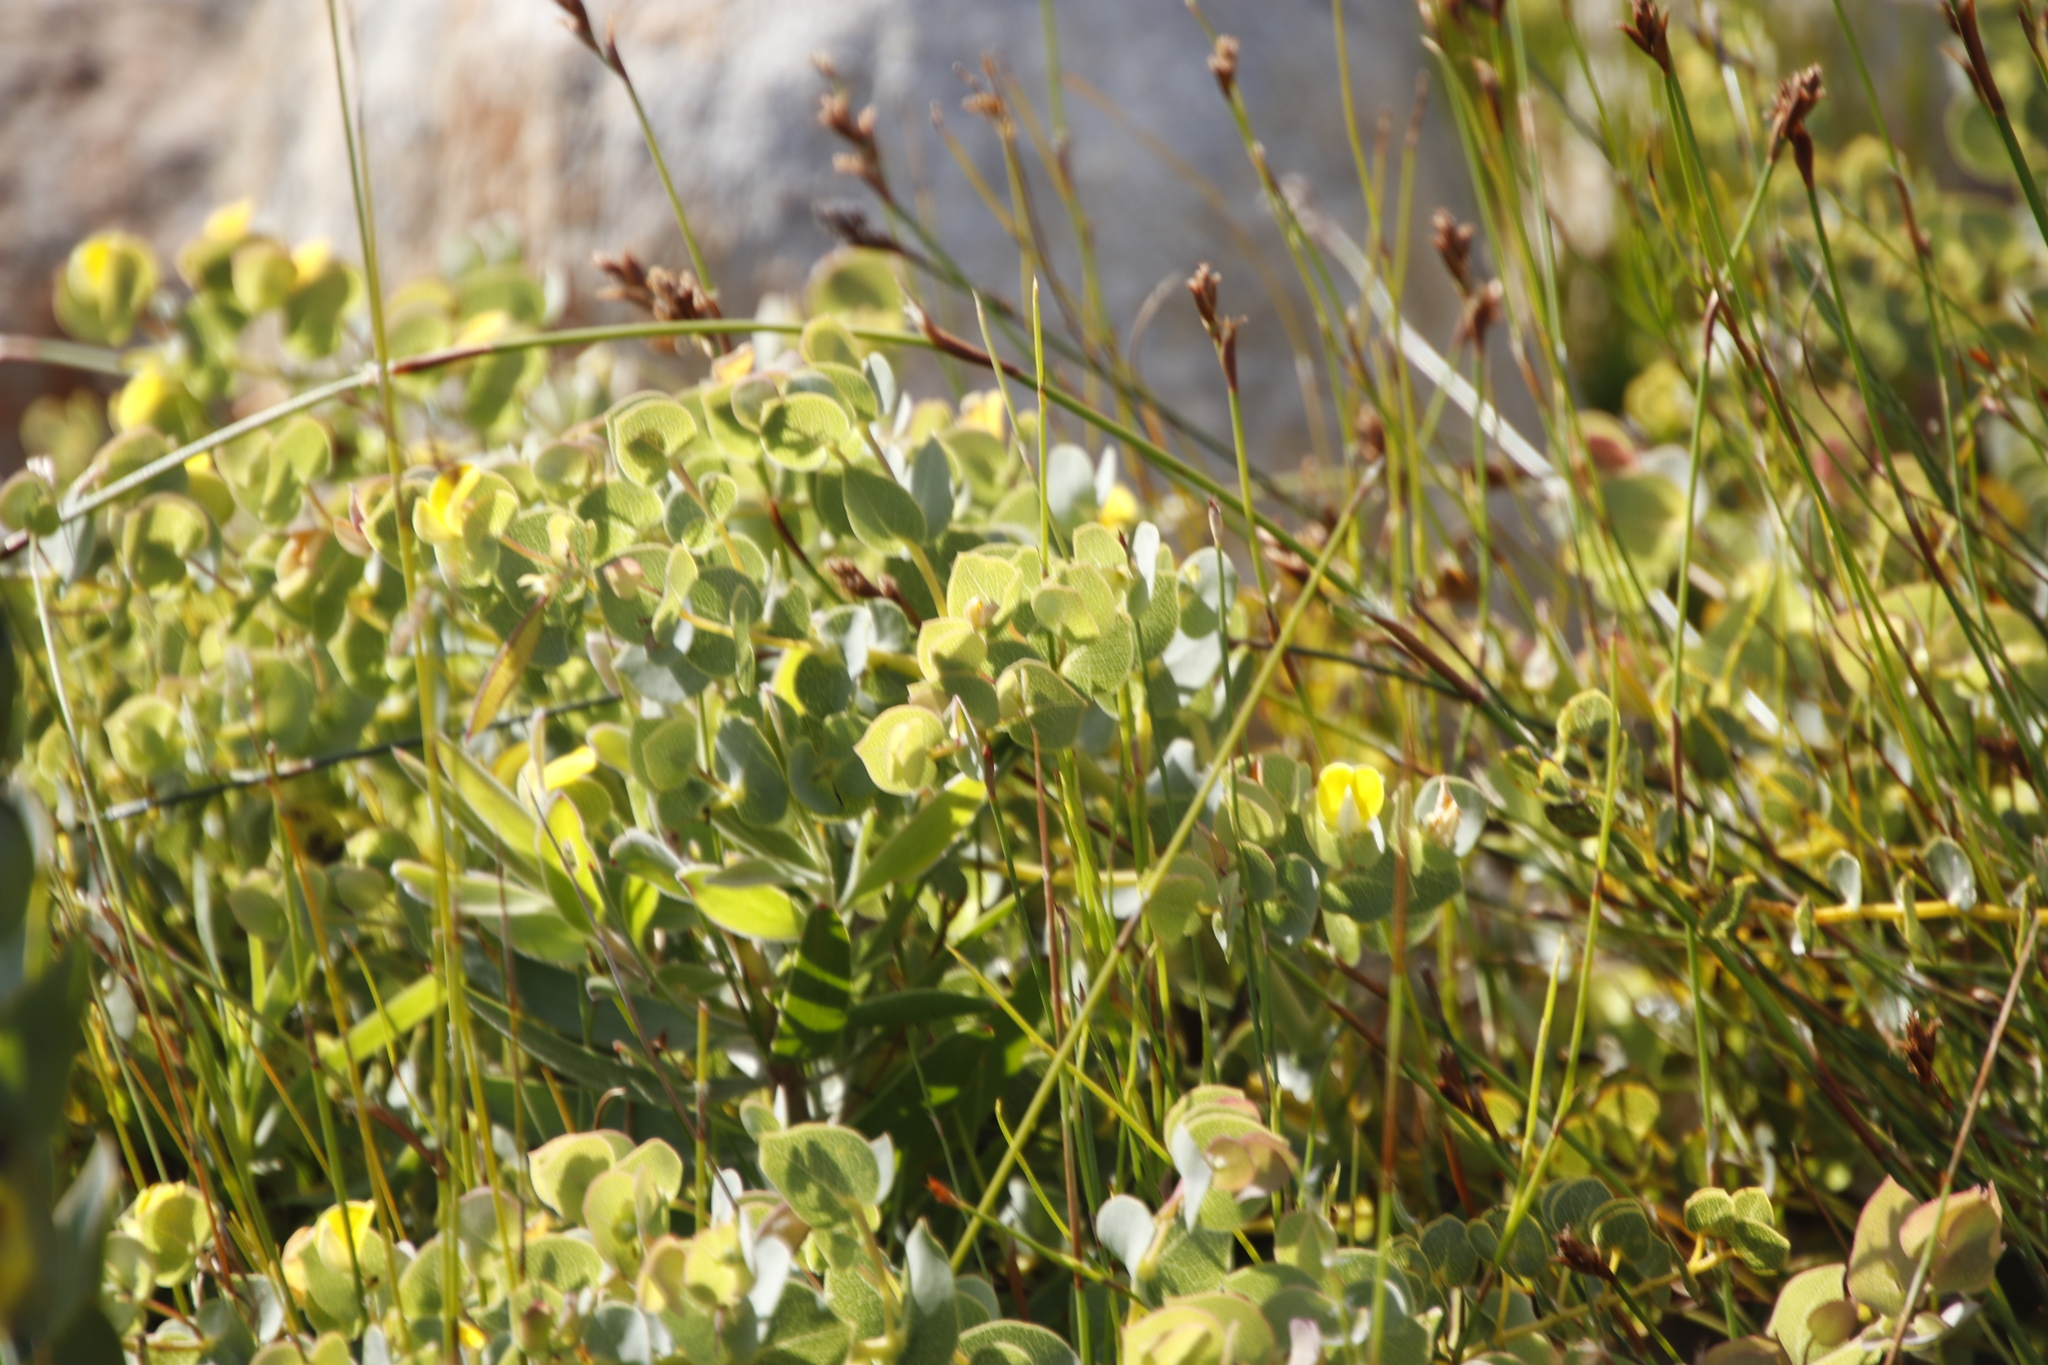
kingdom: Plantae
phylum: Tracheophyta
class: Magnoliopsida
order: Fabales
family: Fabaceae
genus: Rafnia
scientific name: Rafnia acuminata
